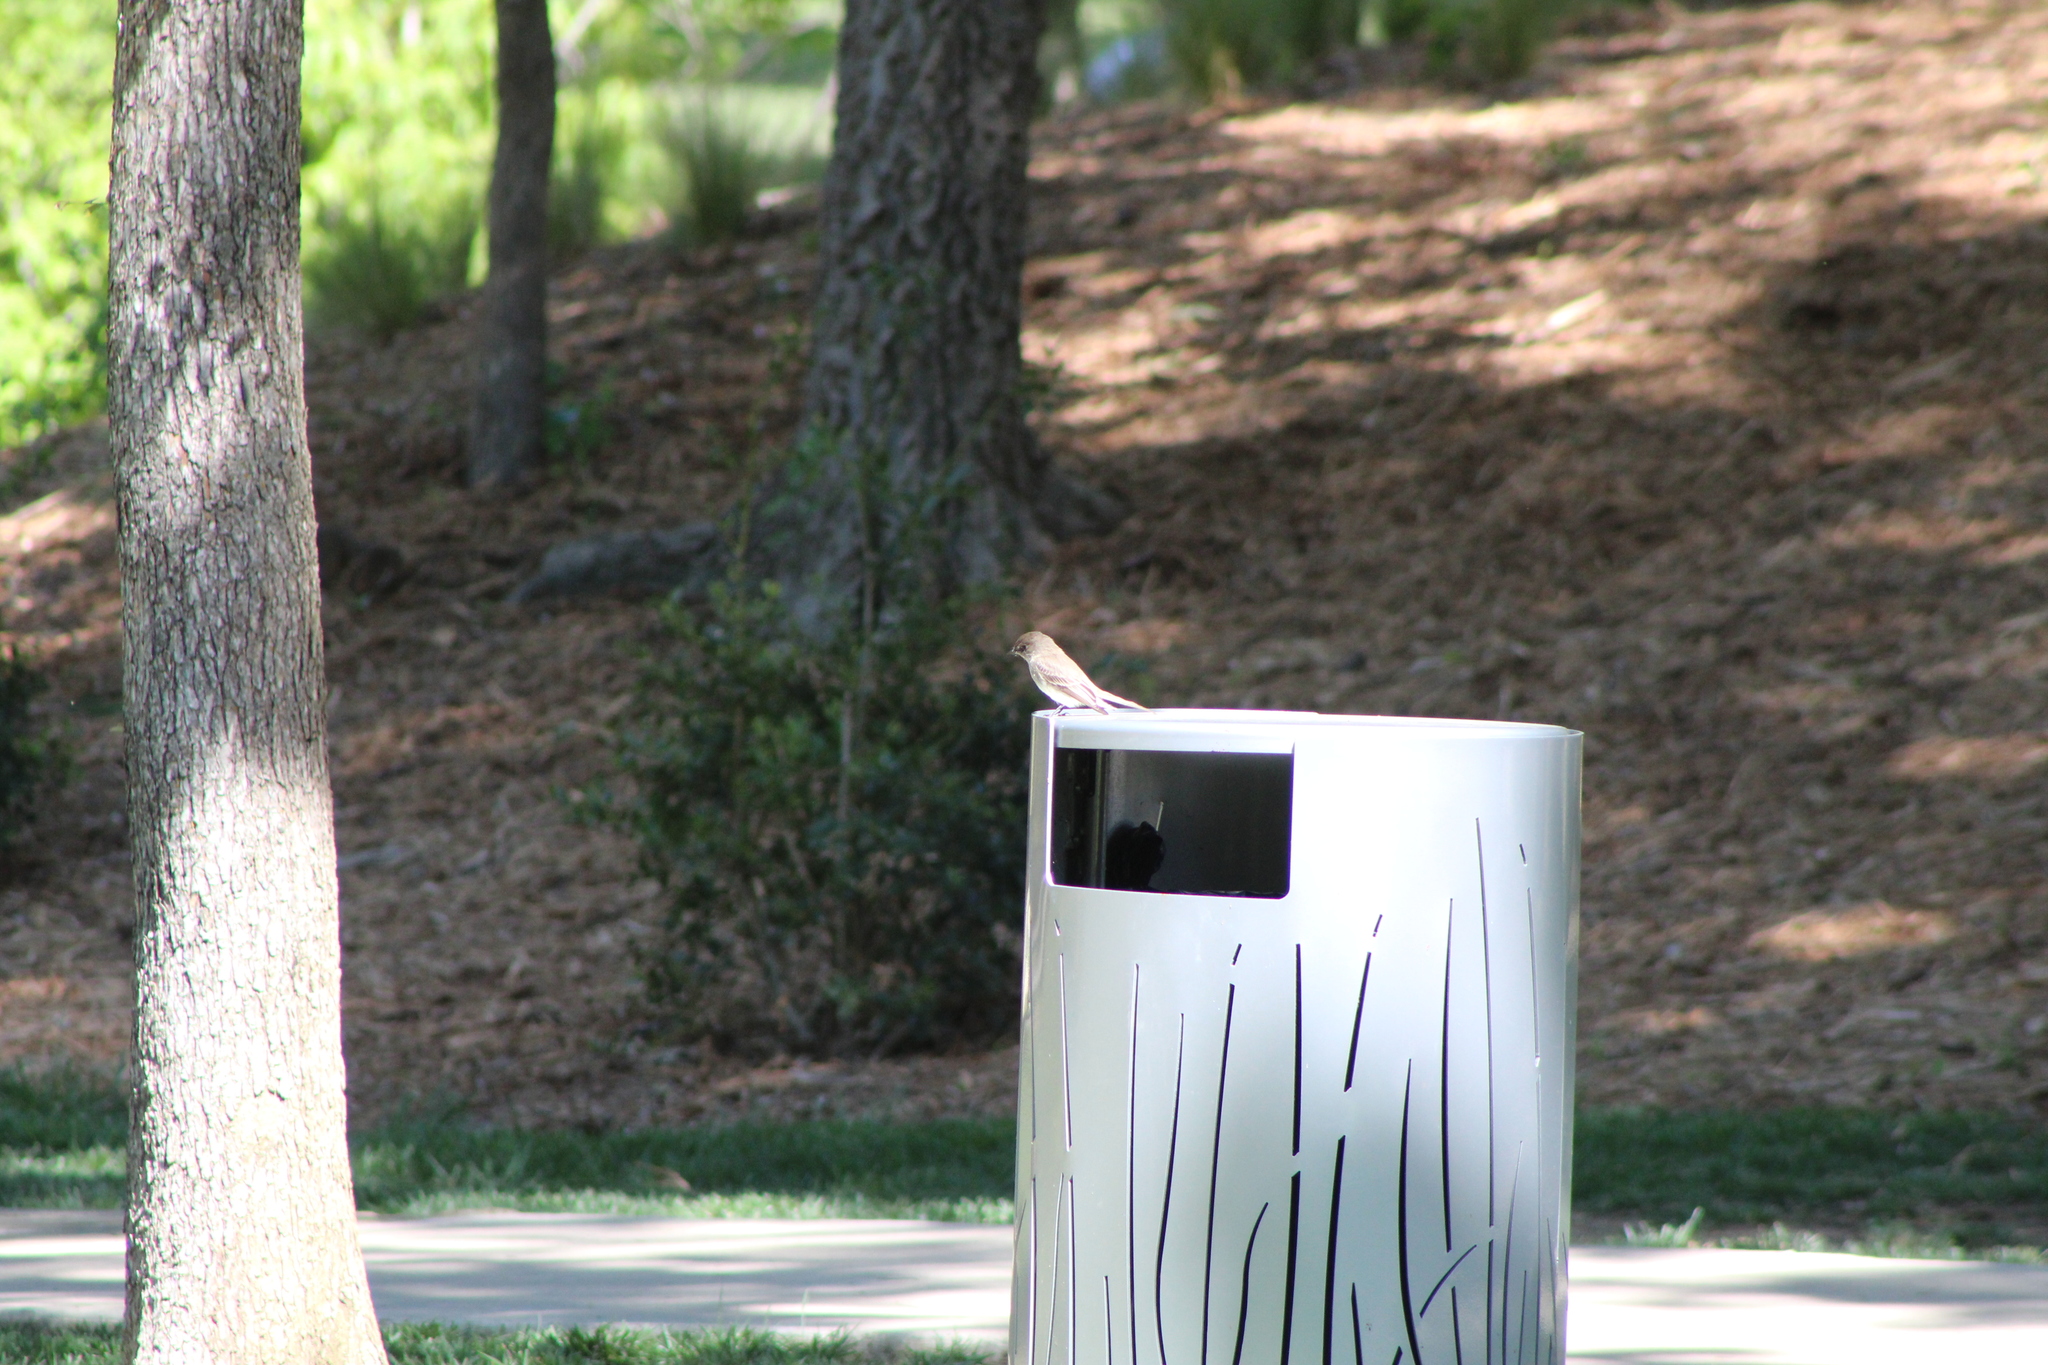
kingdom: Animalia
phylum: Chordata
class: Aves
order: Passeriformes
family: Tyrannidae
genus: Sayornis
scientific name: Sayornis phoebe
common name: Eastern phoebe
